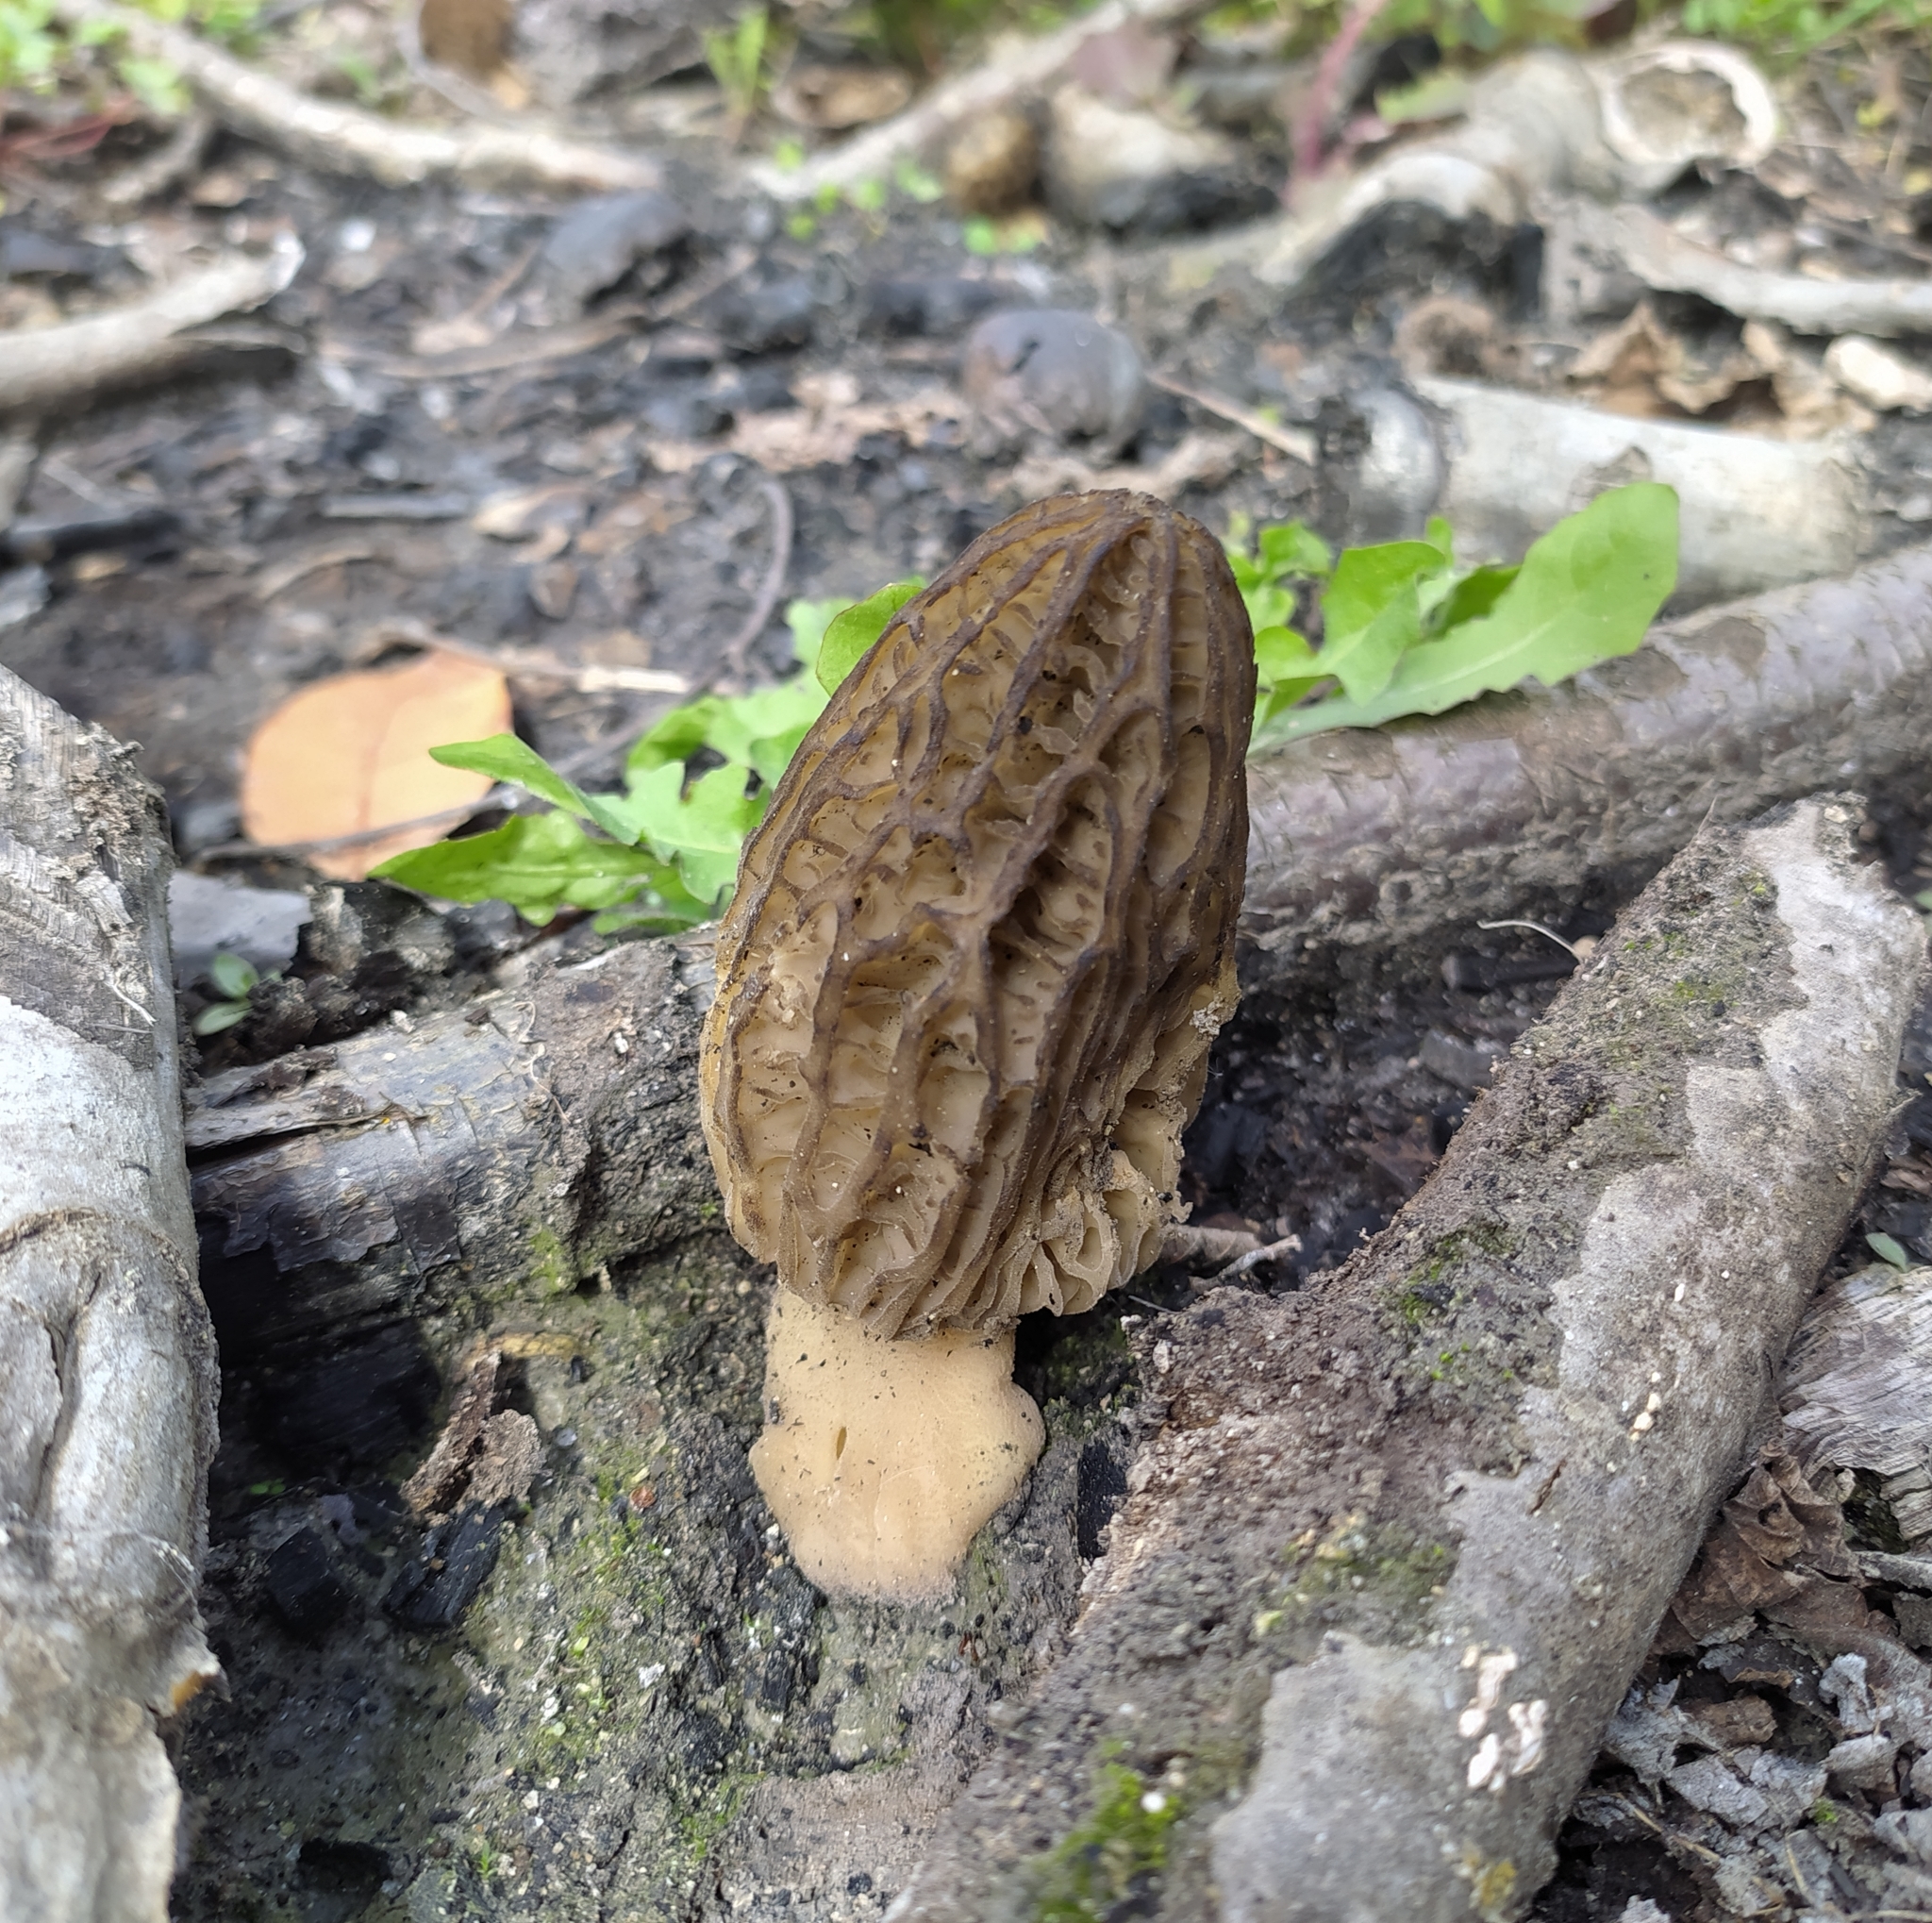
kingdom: Fungi
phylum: Ascomycota
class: Pezizomycetes
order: Pezizales
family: Morchellaceae
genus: Morchella
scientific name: Morchella
